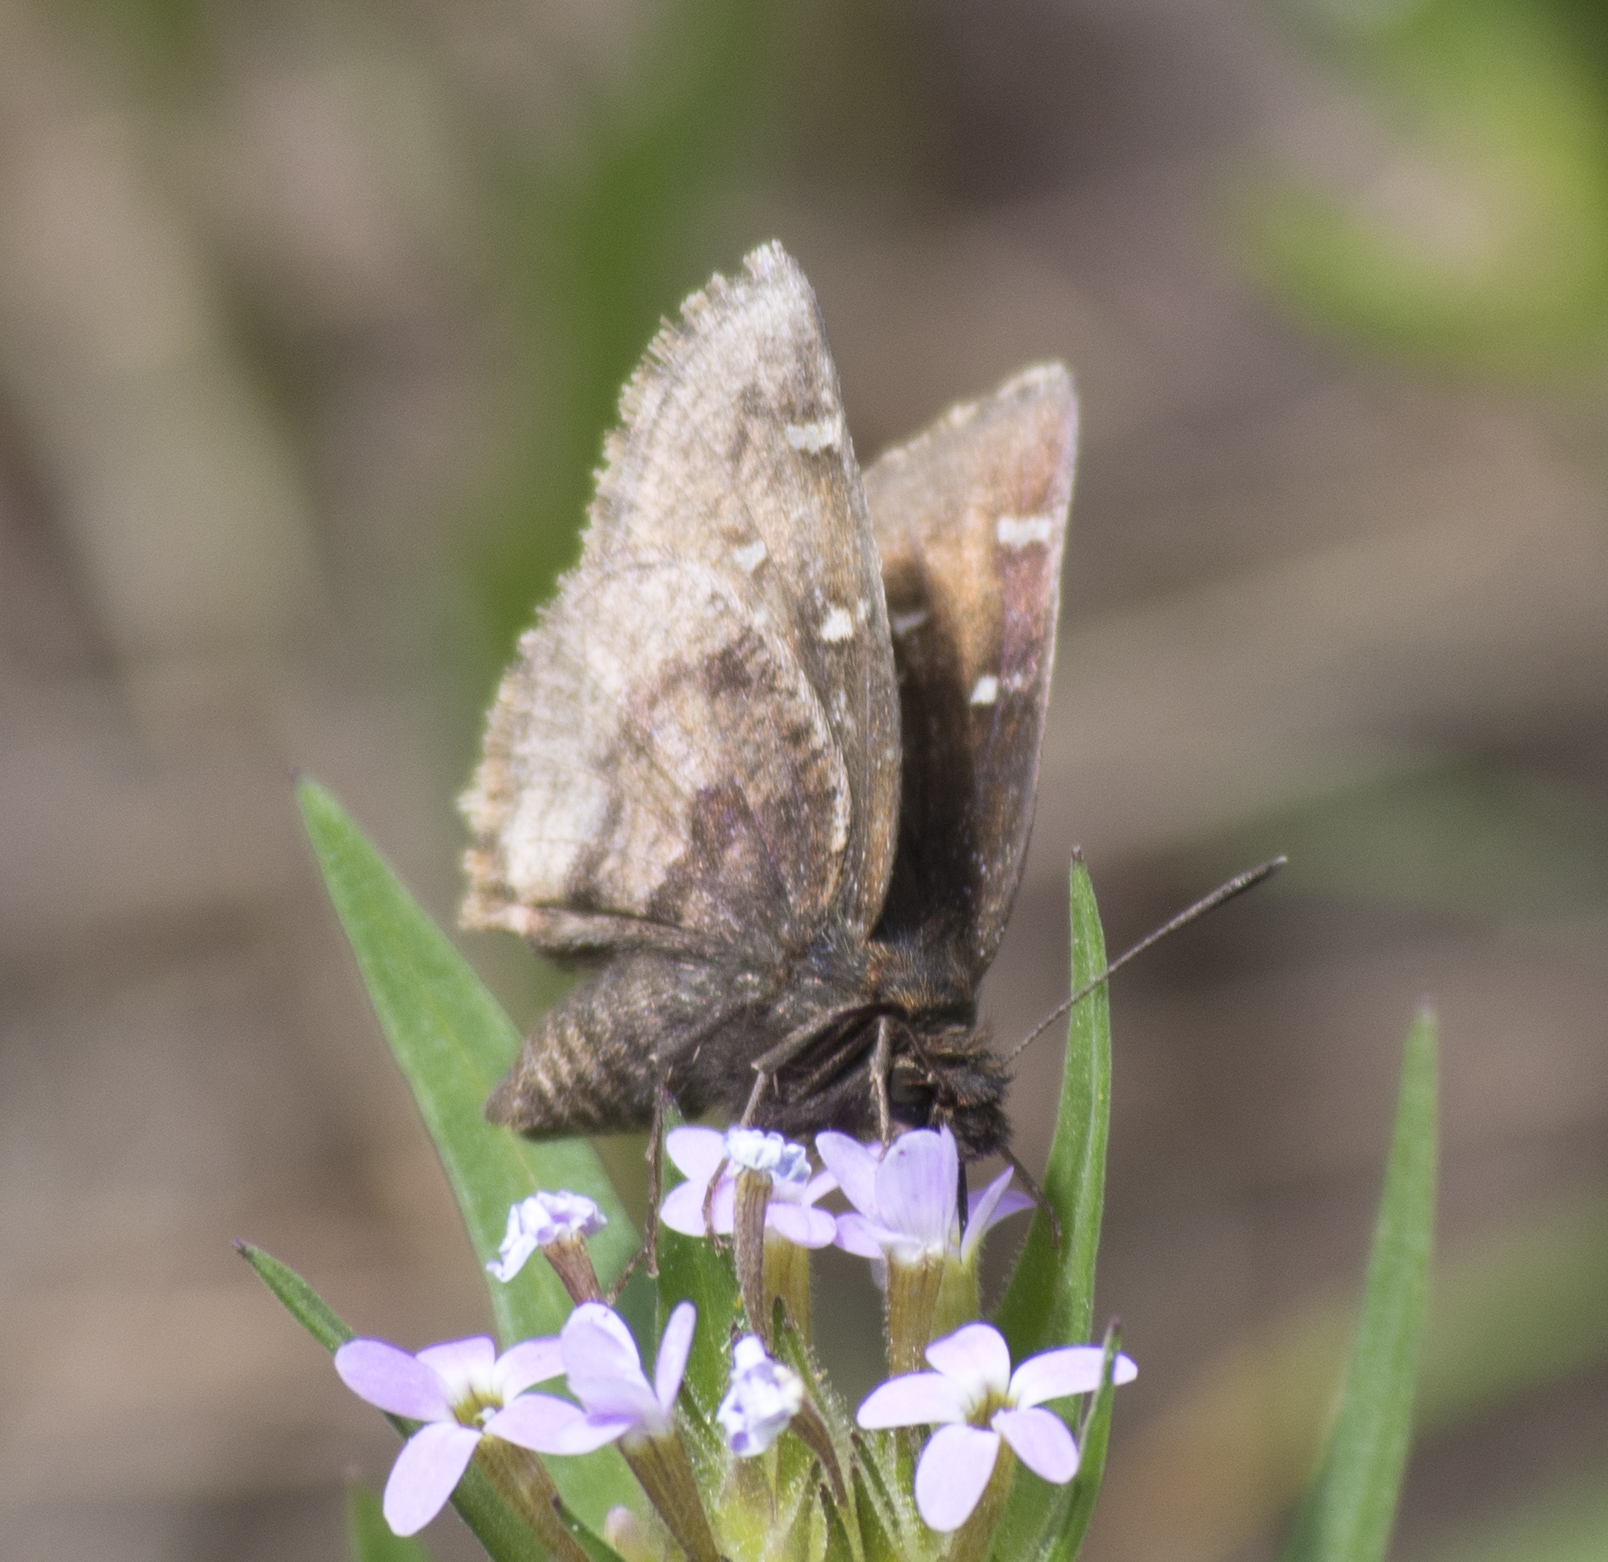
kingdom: Animalia
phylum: Arthropoda
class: Insecta
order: Lepidoptera
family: Hesperiidae
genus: Thorybes
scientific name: Thorybes mexicana
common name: Mexican cloudywing
